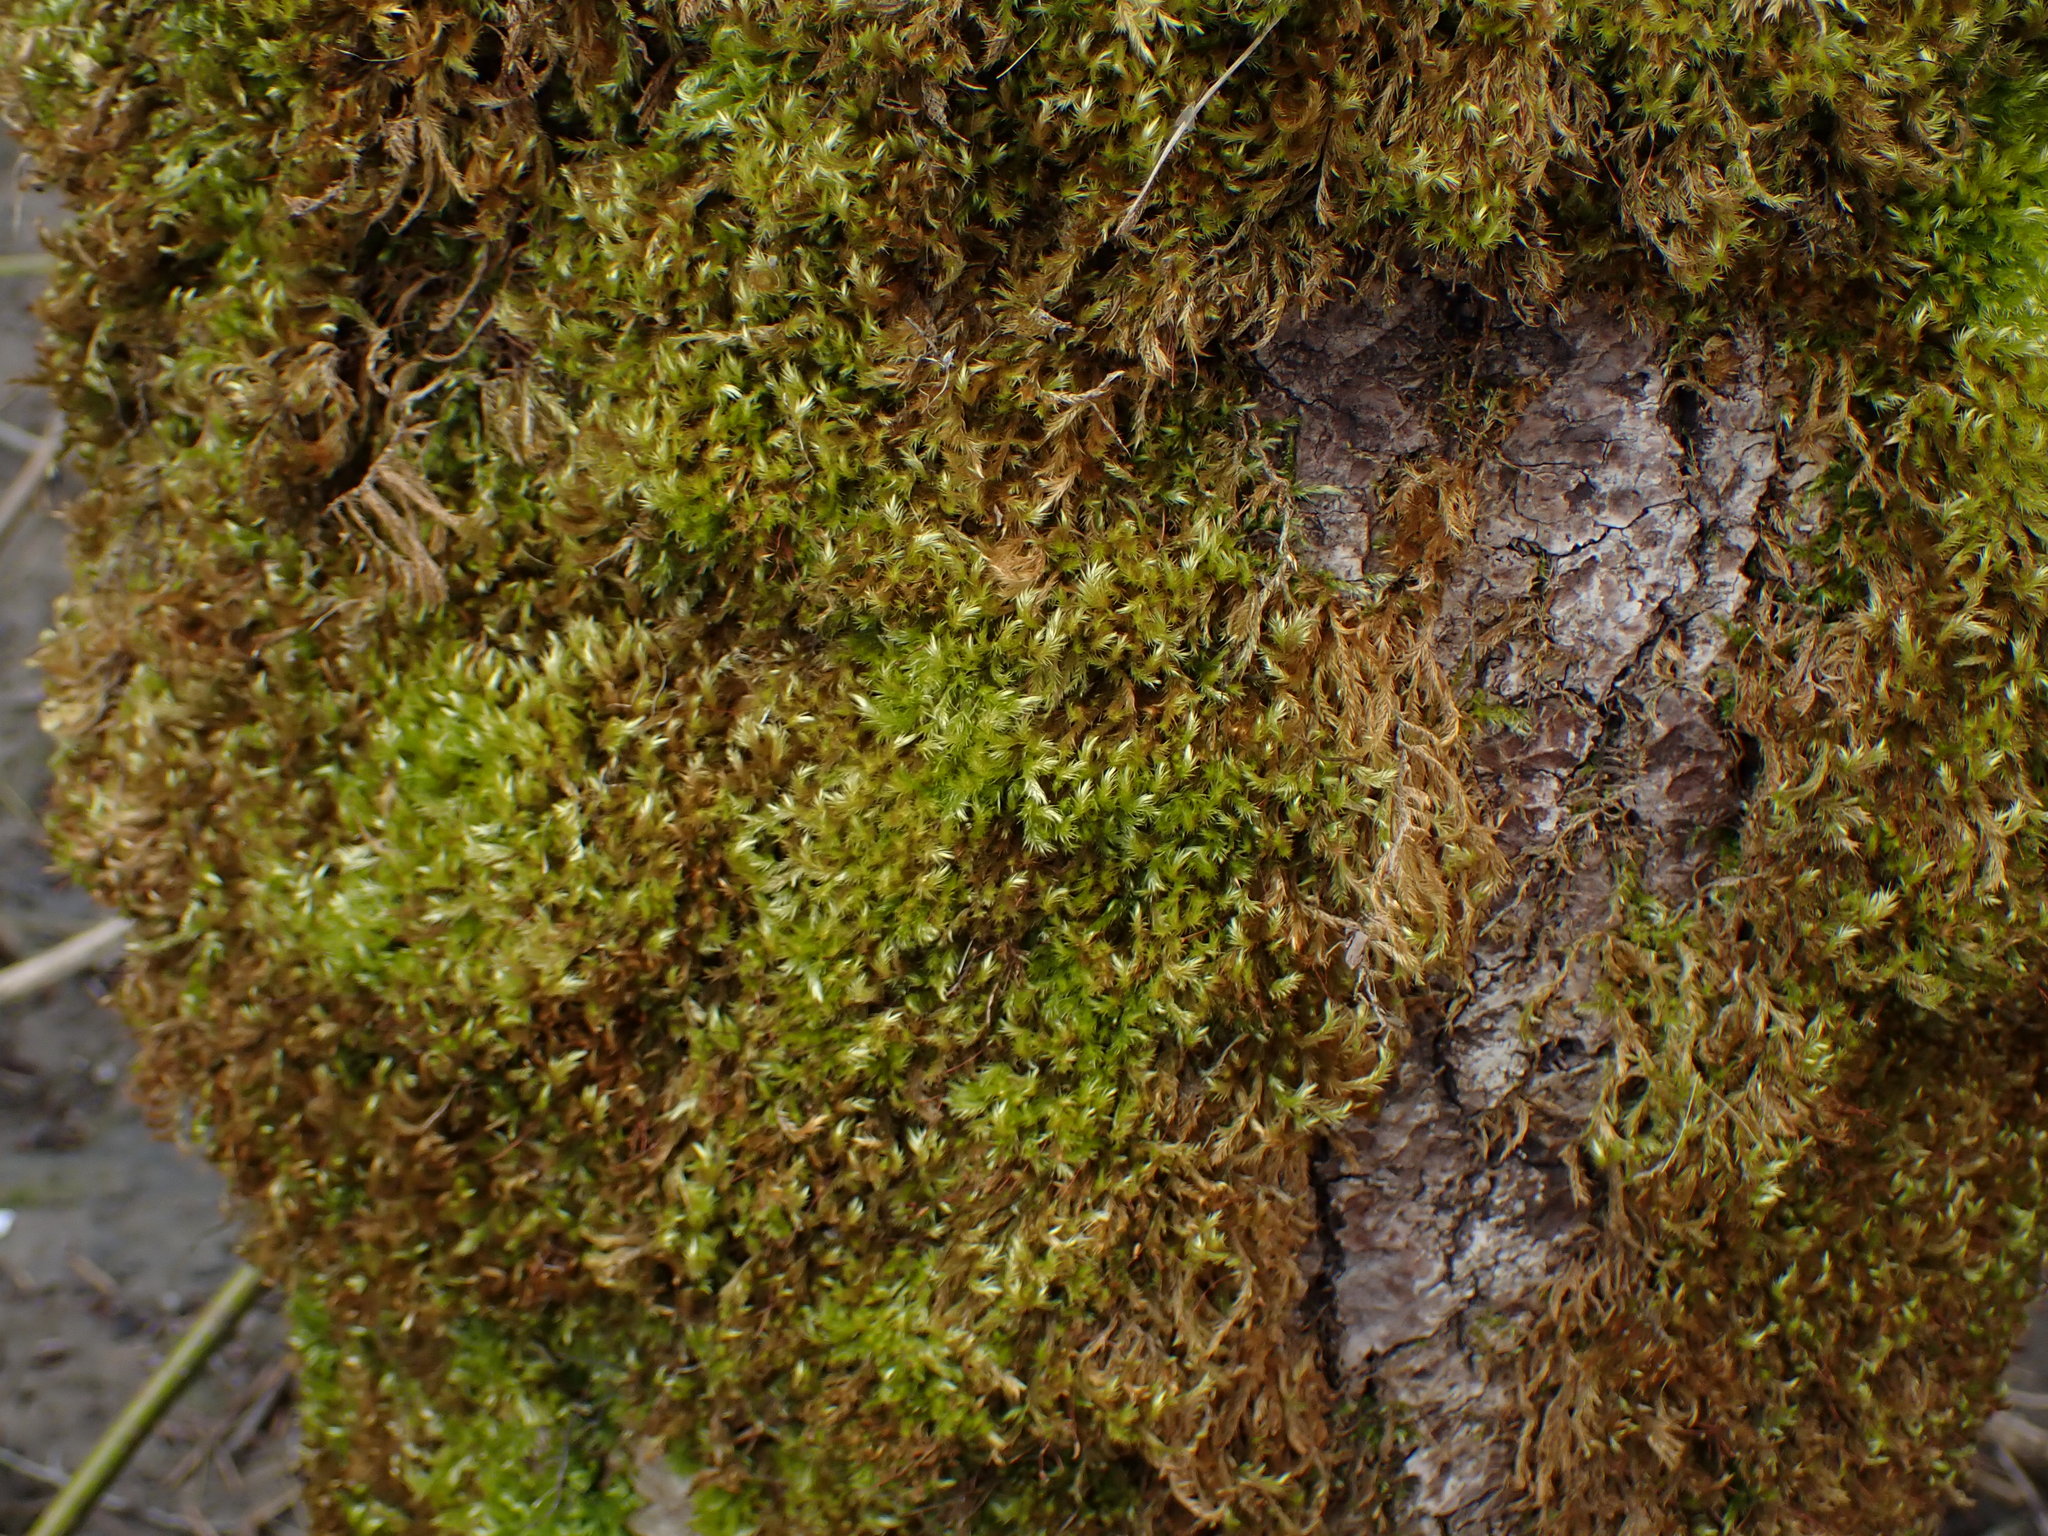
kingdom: Plantae
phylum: Bryophyta
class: Bryopsida
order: Hypnales
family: Brachytheciaceae
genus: Homalothecium
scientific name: Homalothecium fulgescens
